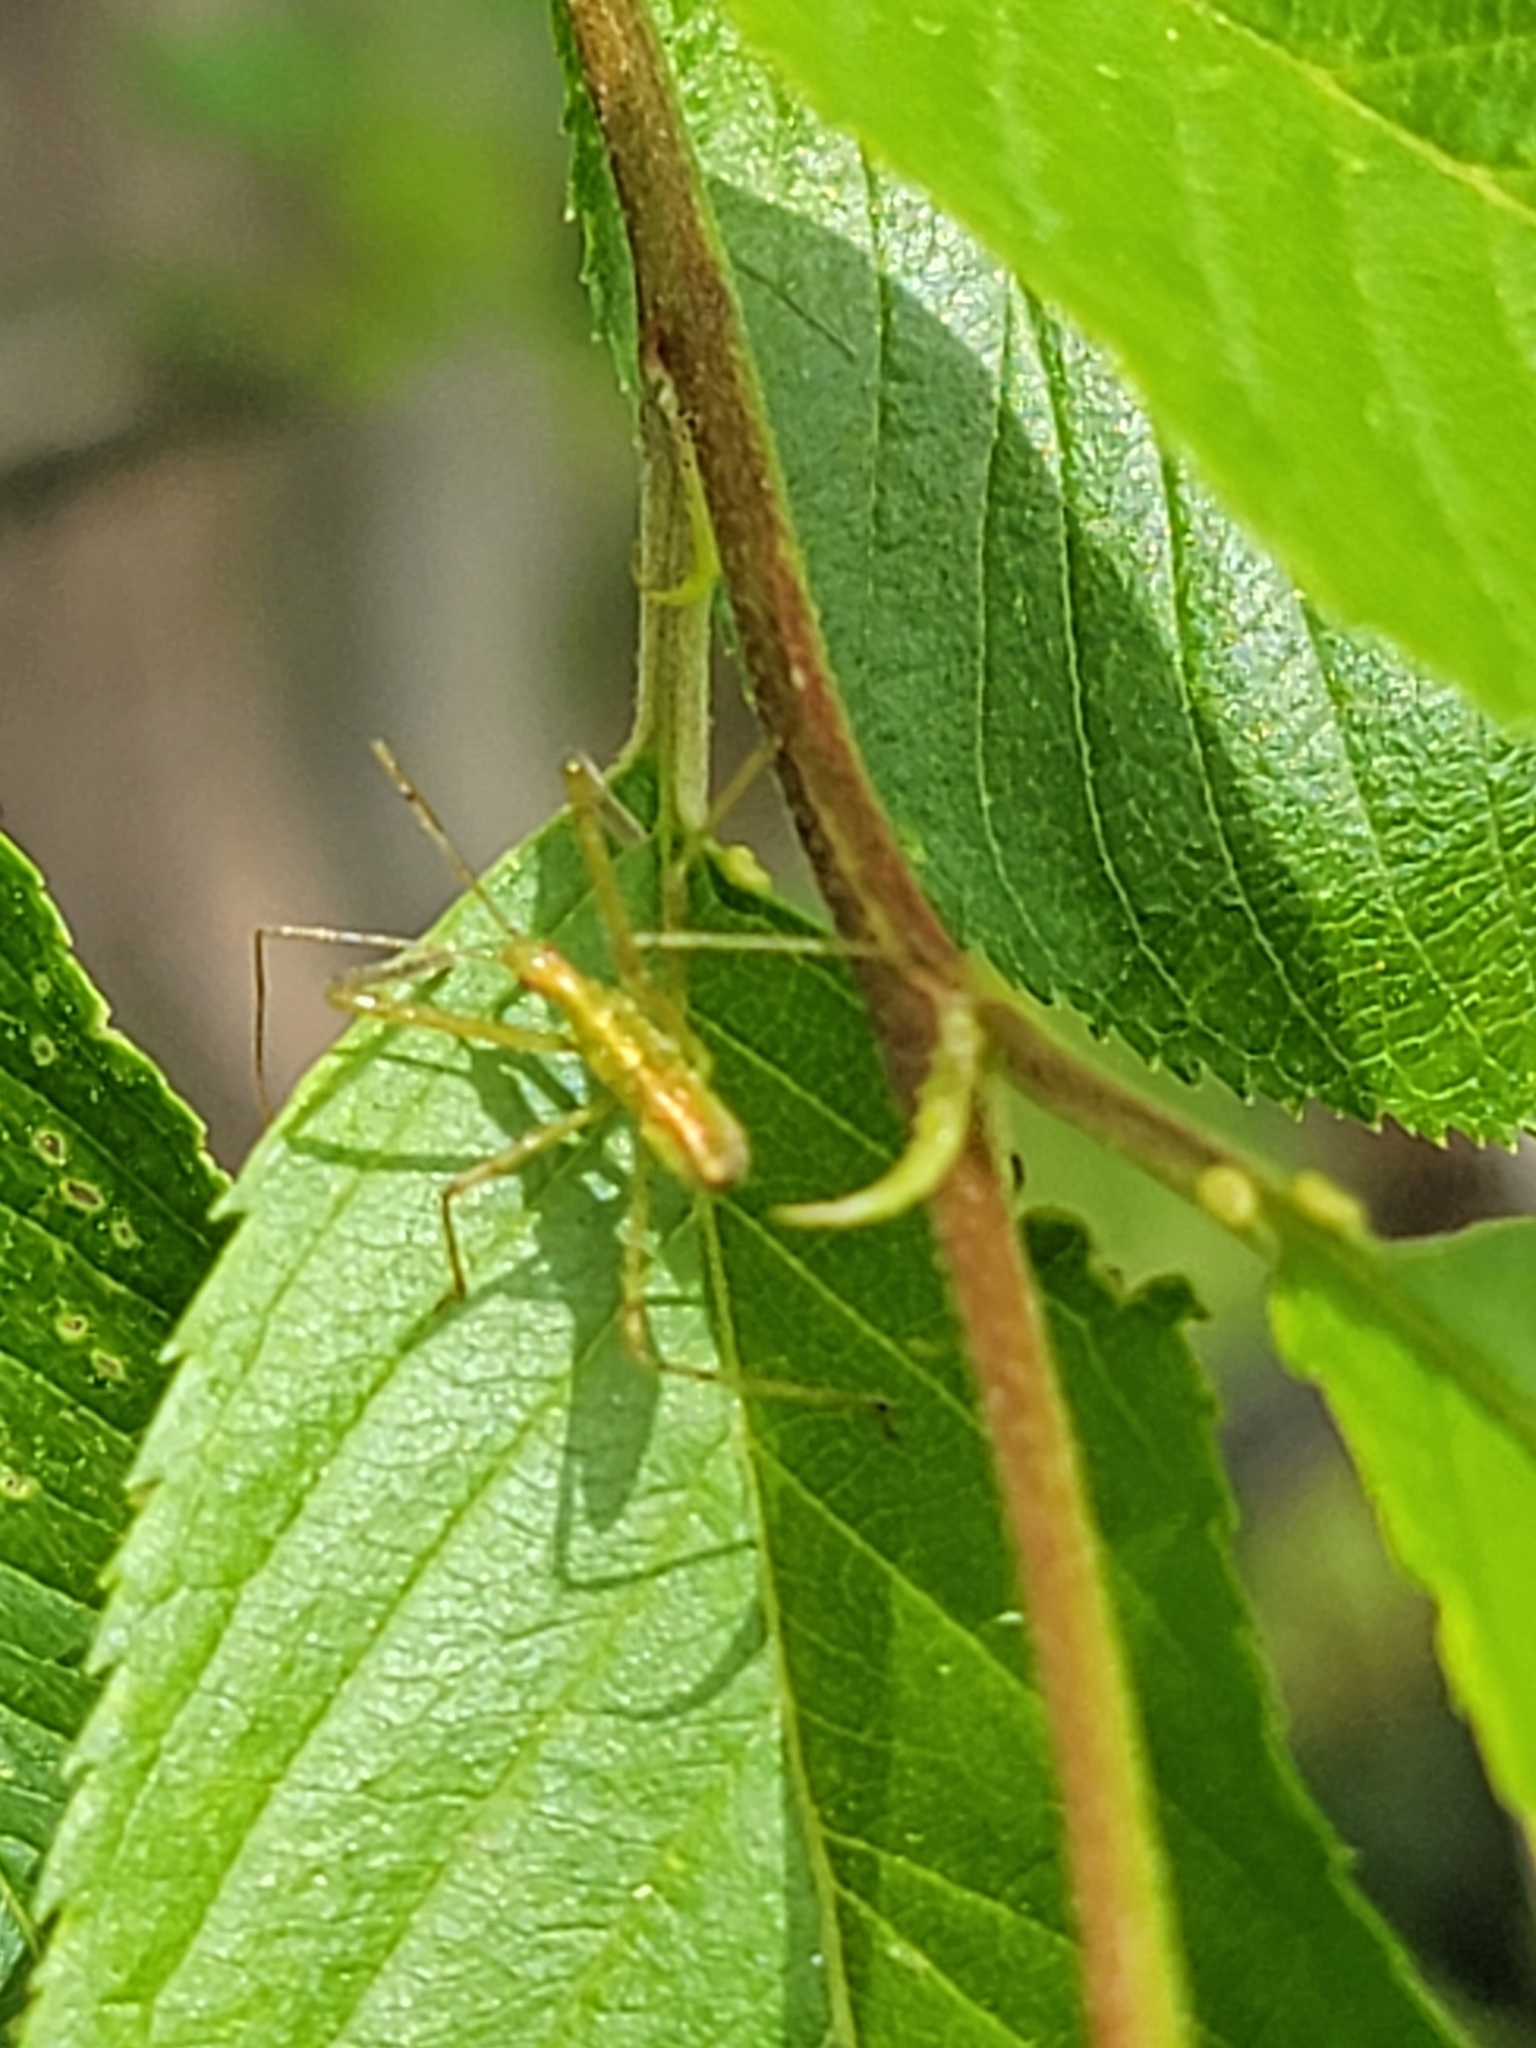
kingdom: Animalia
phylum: Arthropoda
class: Insecta
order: Hemiptera
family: Reduviidae
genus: Zelus
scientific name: Zelus luridus
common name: Pale green assassin bug
